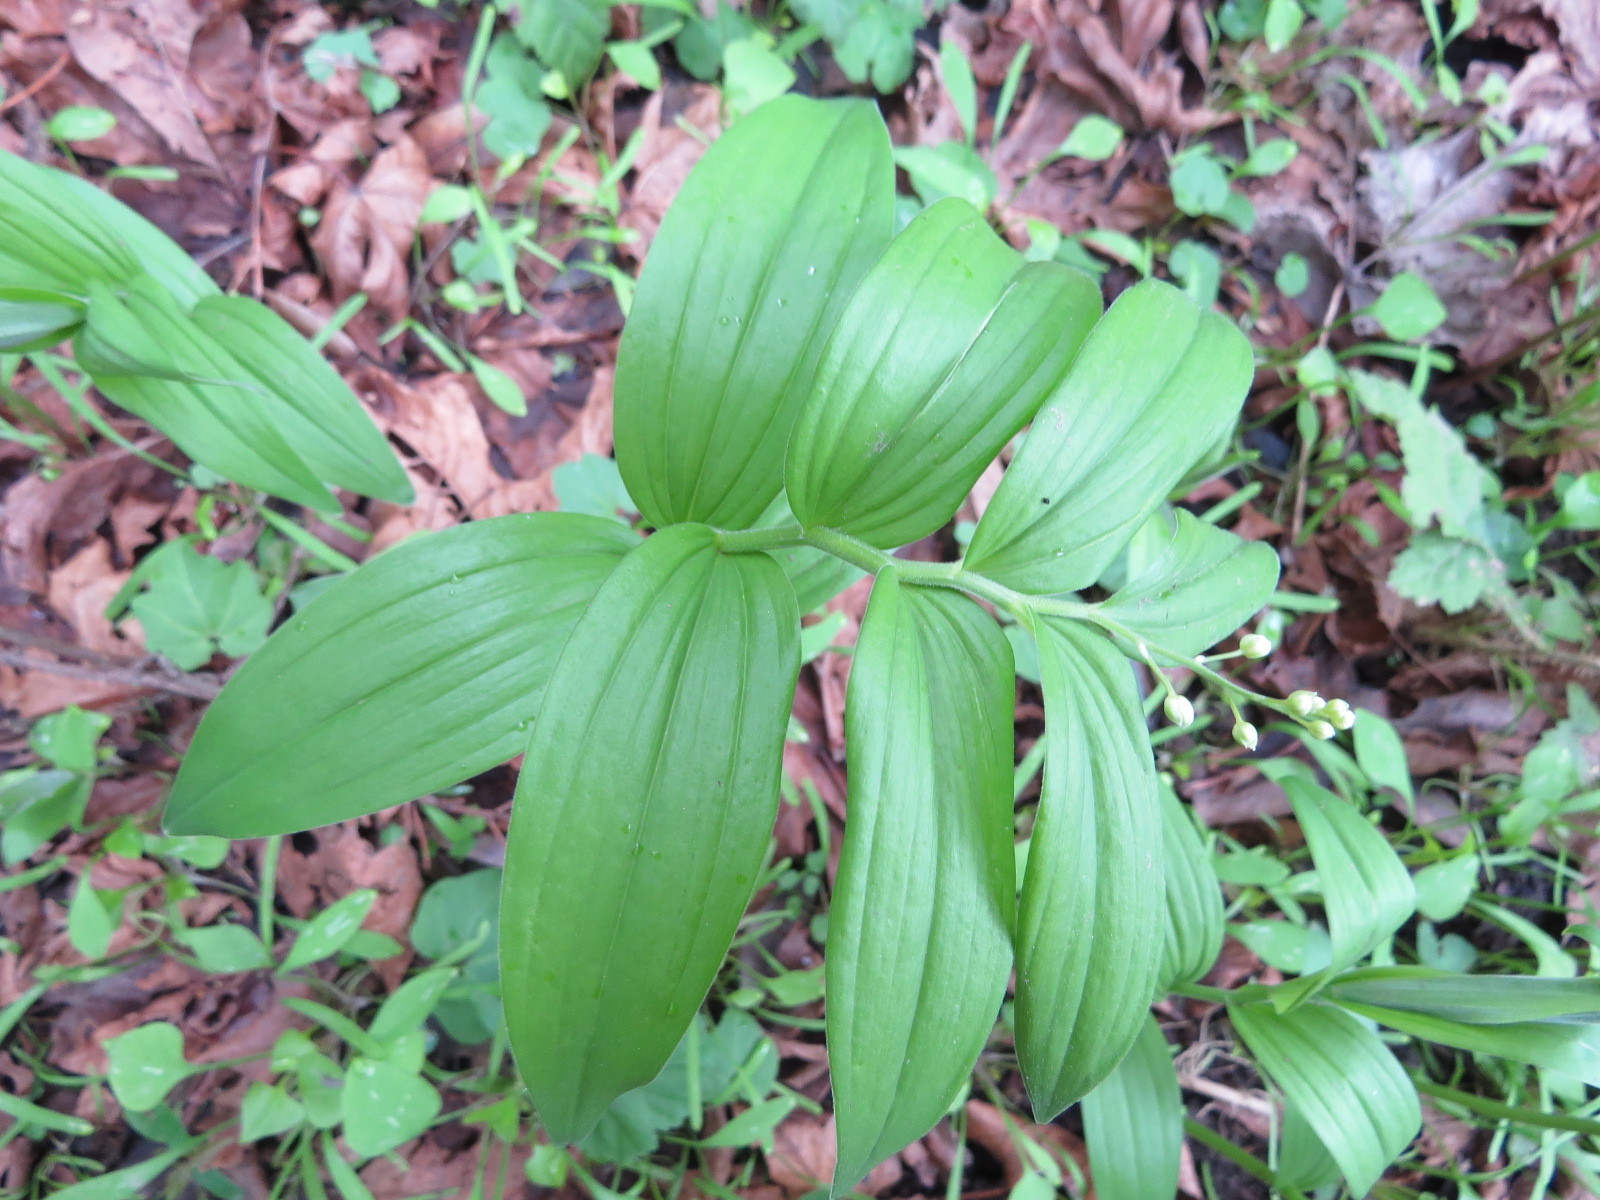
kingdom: Plantae
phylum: Tracheophyta
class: Liliopsida
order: Asparagales
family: Asparagaceae
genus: Maianthemum
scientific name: Maianthemum stellatum
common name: Little false solomon's seal
